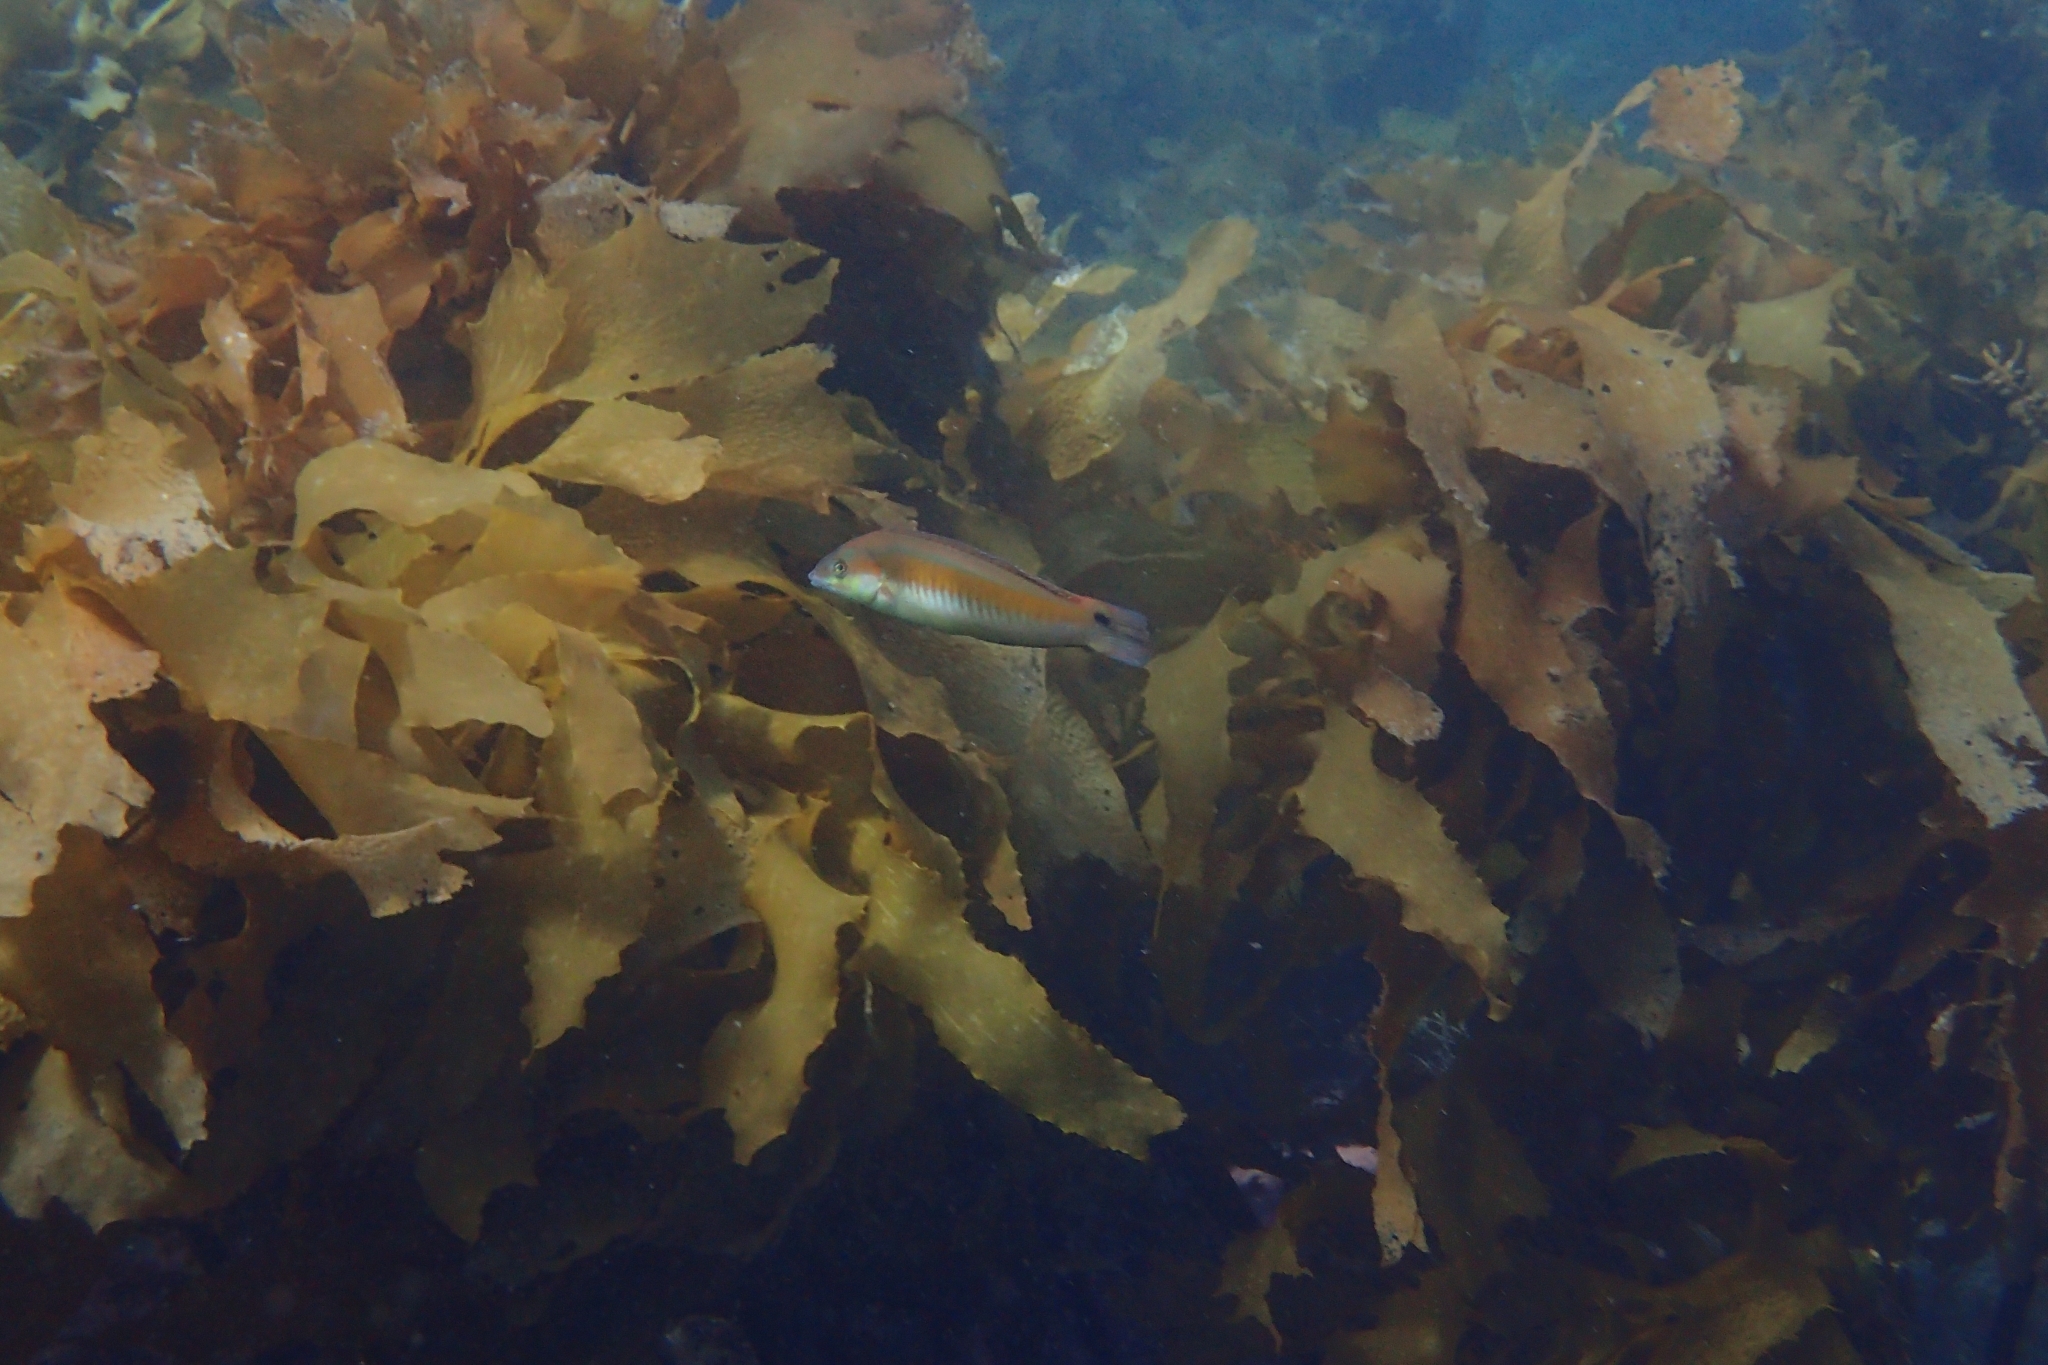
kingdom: Animalia
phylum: Chordata
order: Perciformes
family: Labridae
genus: Coris
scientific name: Coris sandeyeri
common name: Sandager's wrasse
